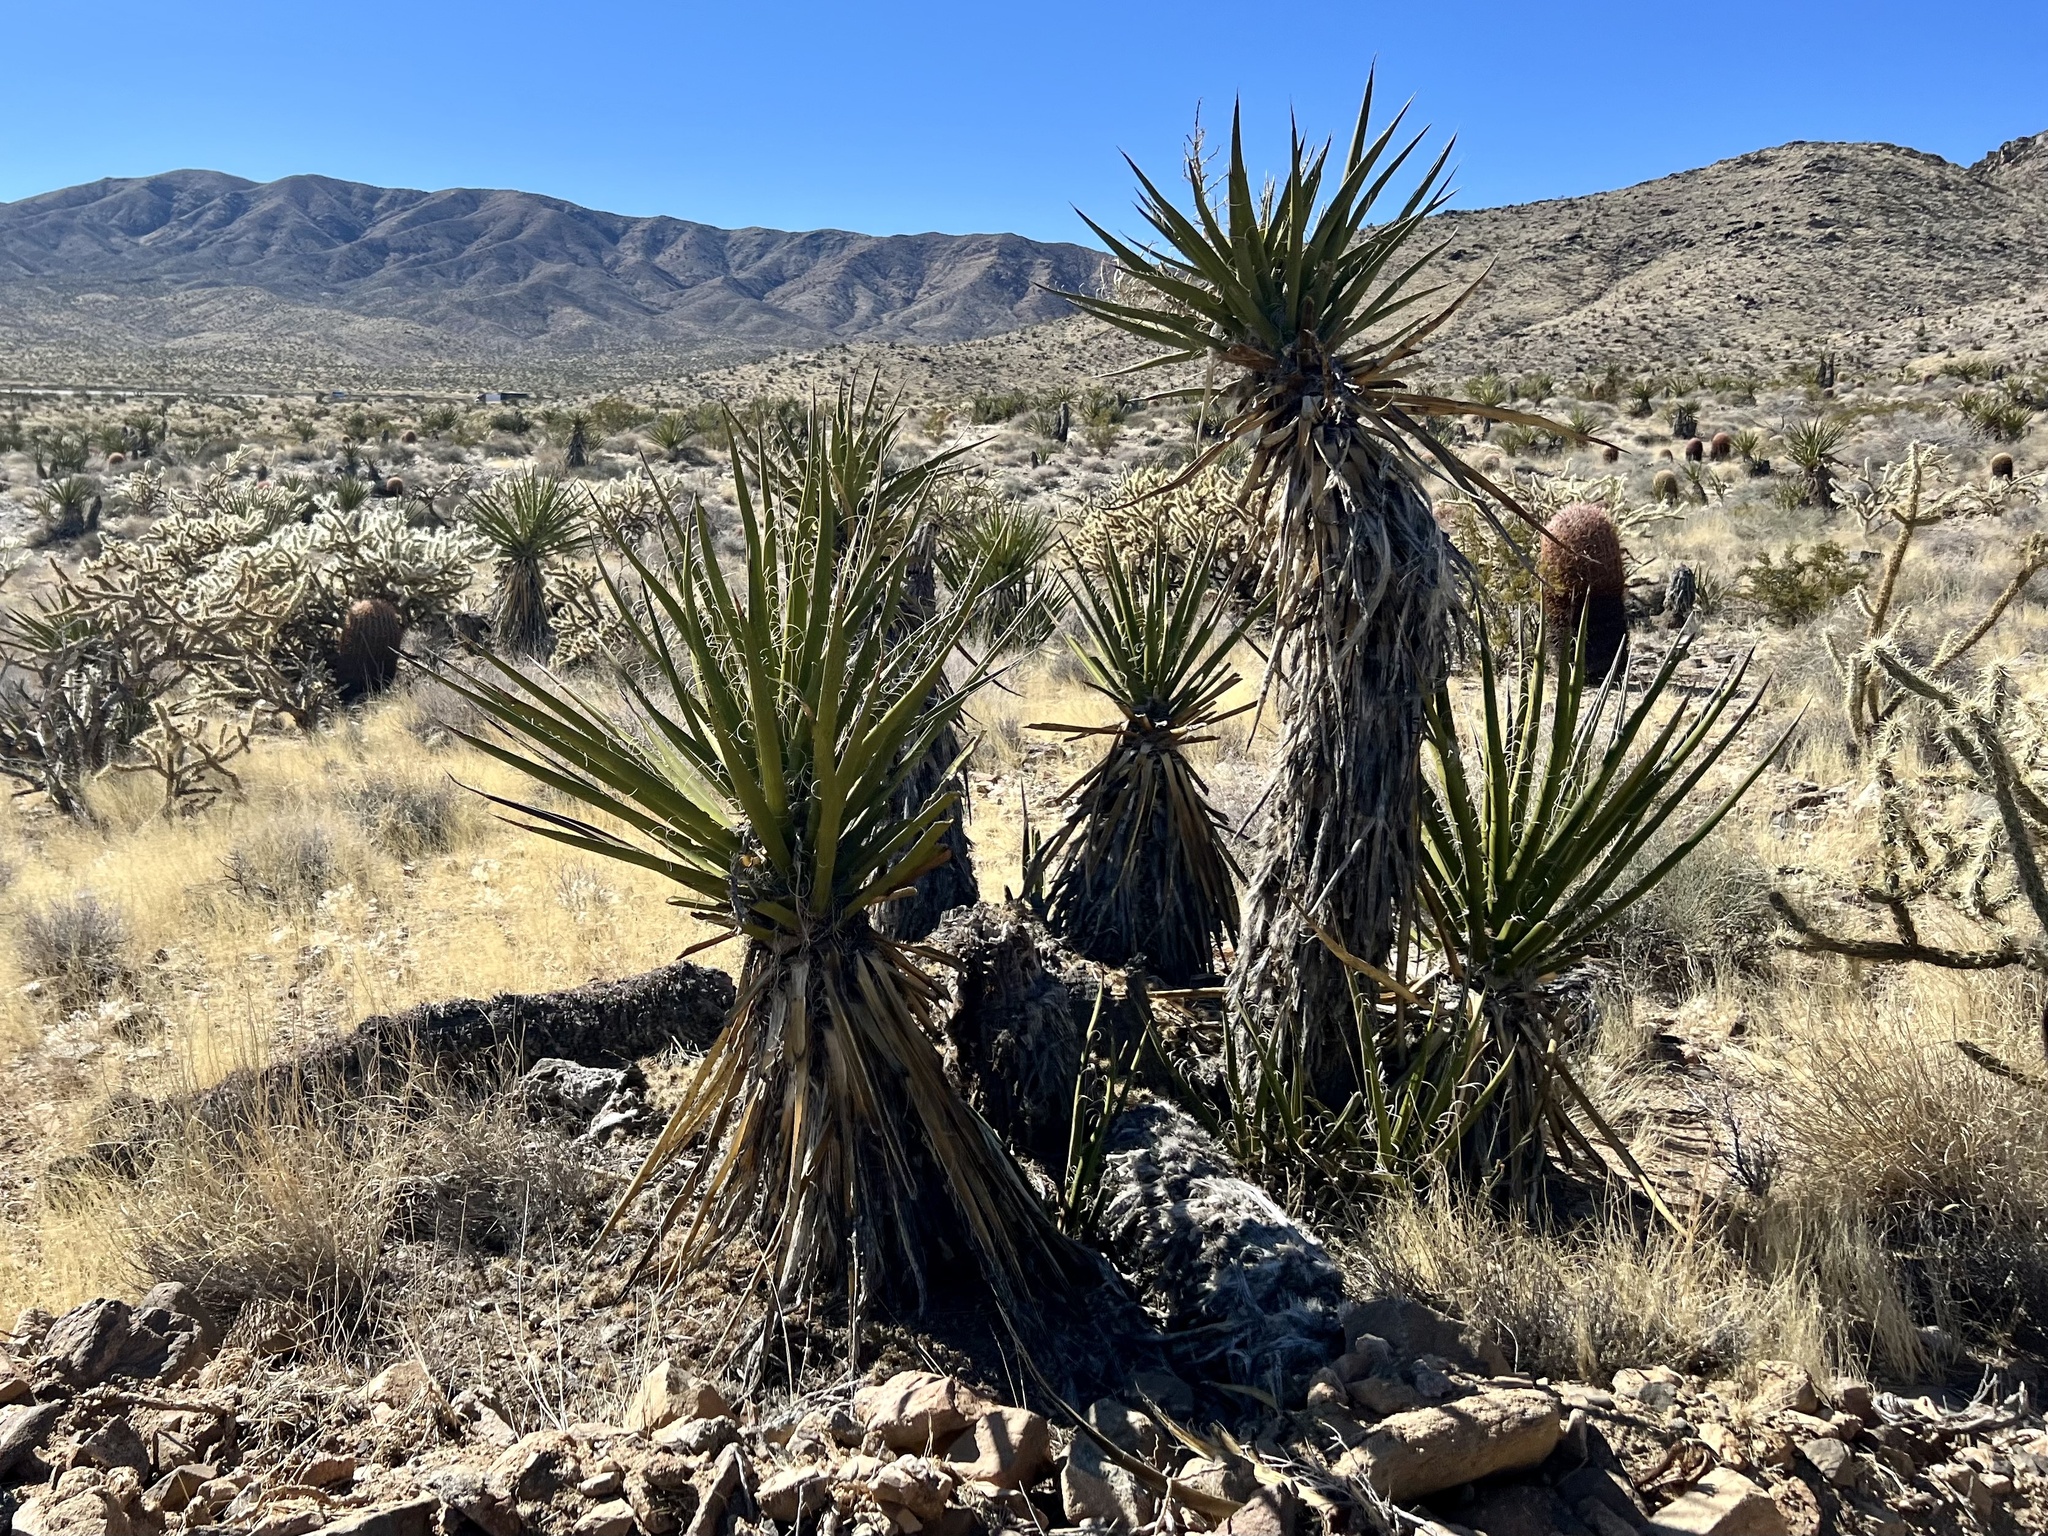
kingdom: Plantae
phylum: Tracheophyta
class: Liliopsida
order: Asparagales
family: Asparagaceae
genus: Yucca
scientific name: Yucca schidigera
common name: Mojave yucca
